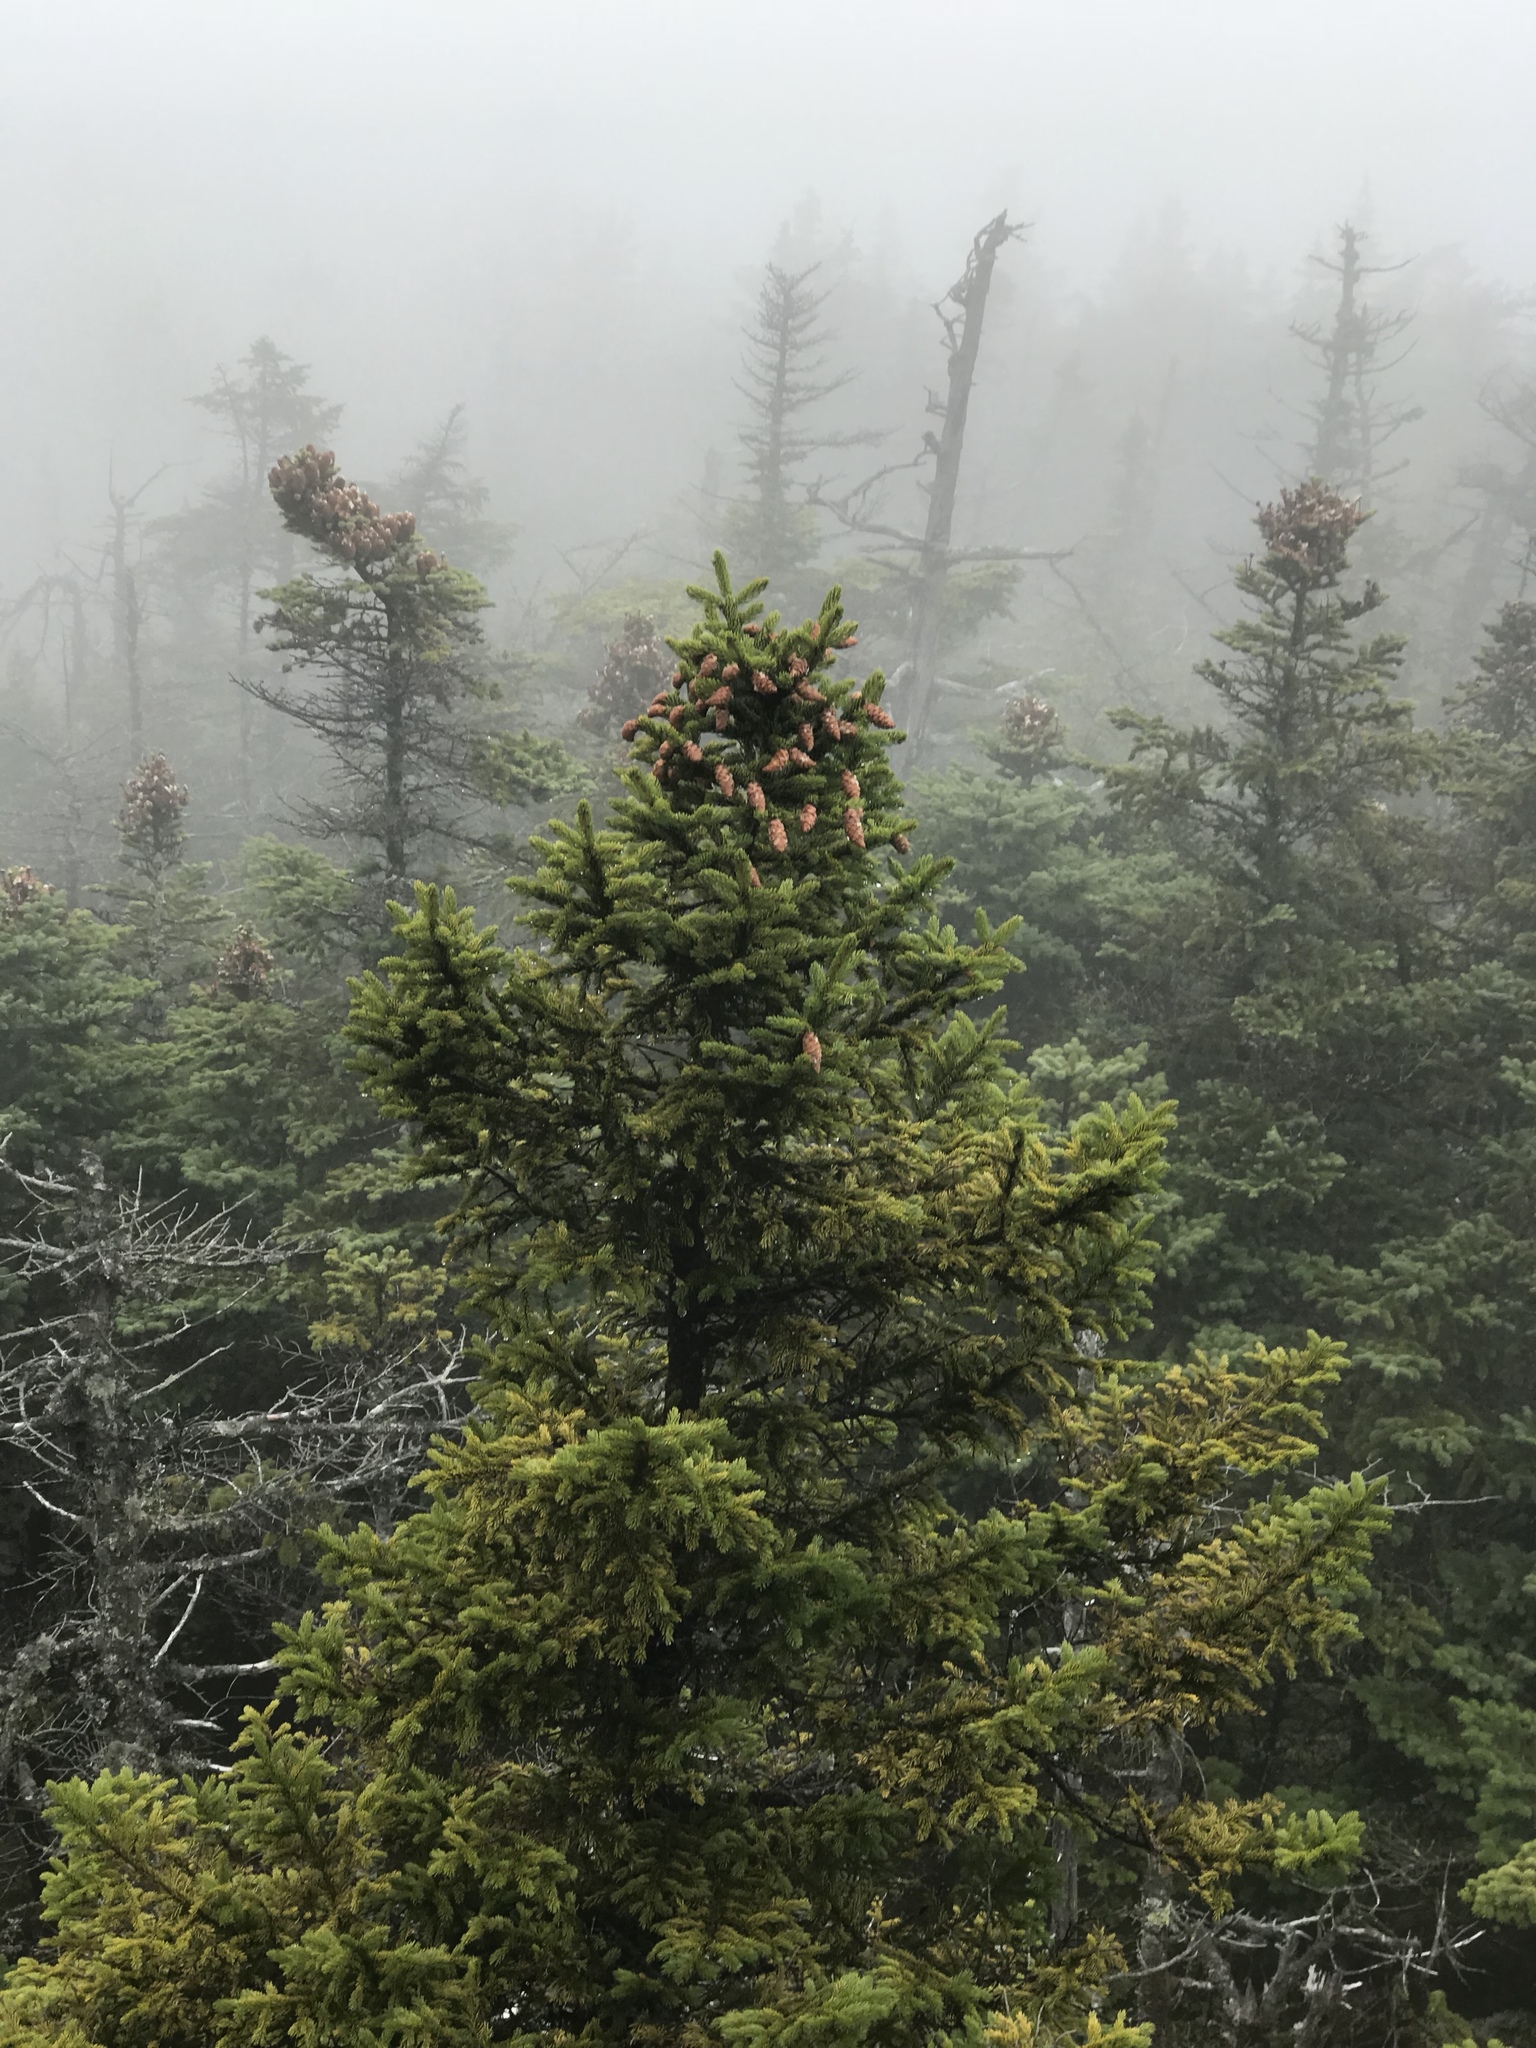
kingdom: Plantae
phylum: Tracheophyta
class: Pinopsida
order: Pinales
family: Pinaceae
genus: Picea
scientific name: Picea rubens
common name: Red spruce
